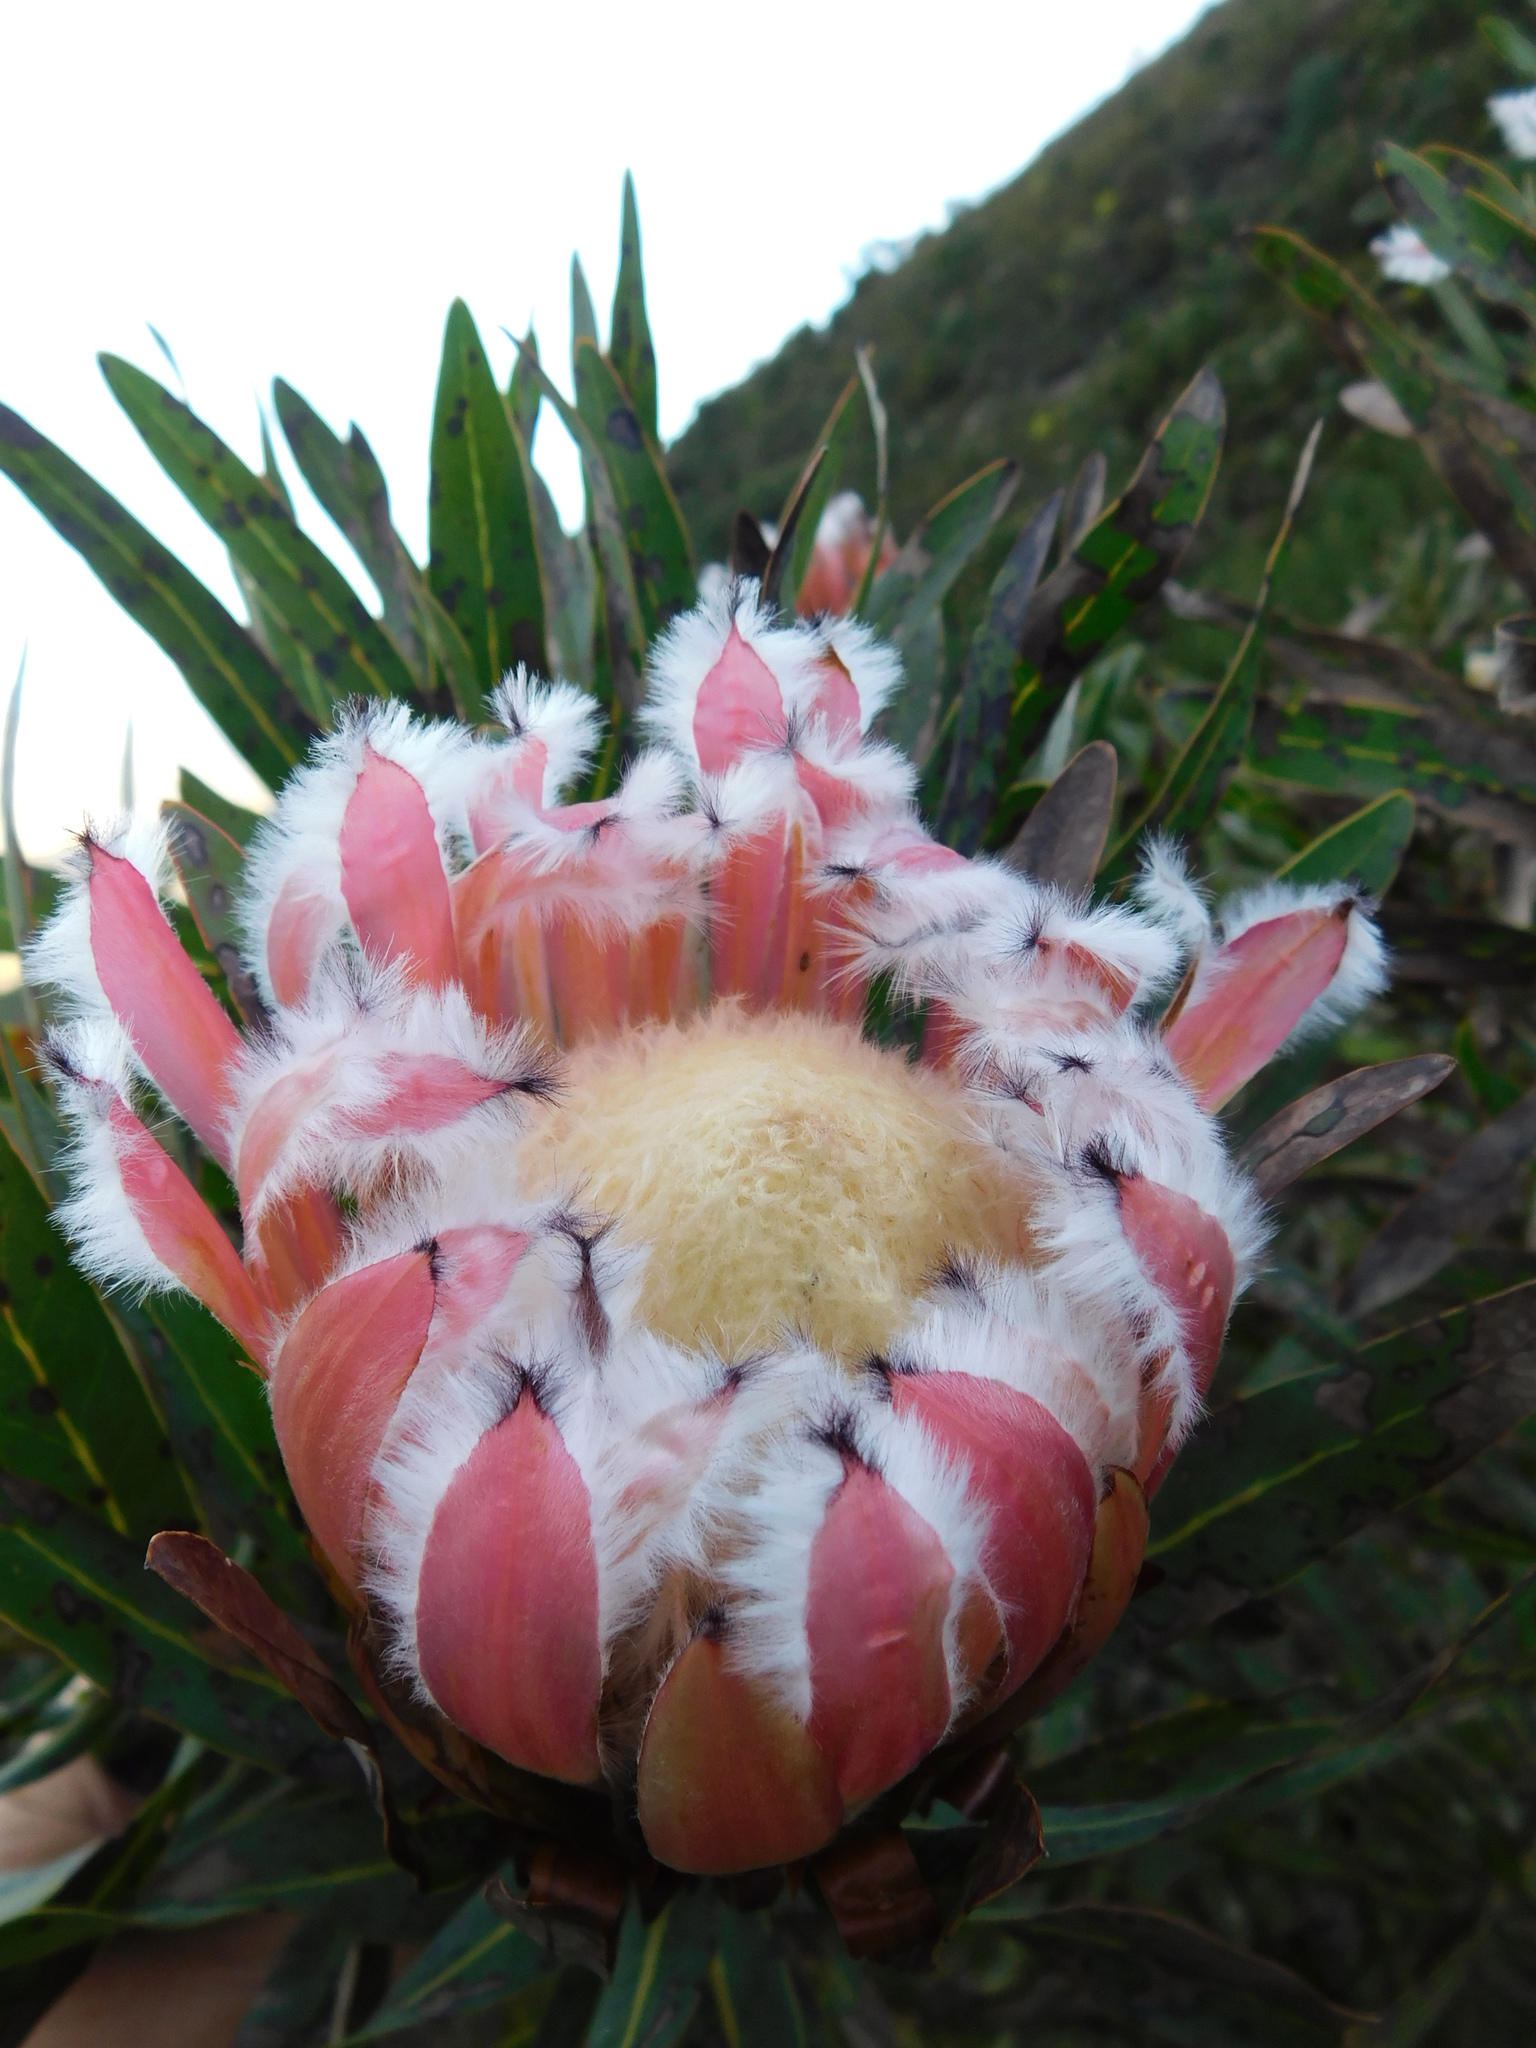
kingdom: Plantae
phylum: Tracheophyta
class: Magnoliopsida
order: Proteales
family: Proteaceae
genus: Protea
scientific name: Protea neriifolia
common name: Blue sugarbush
